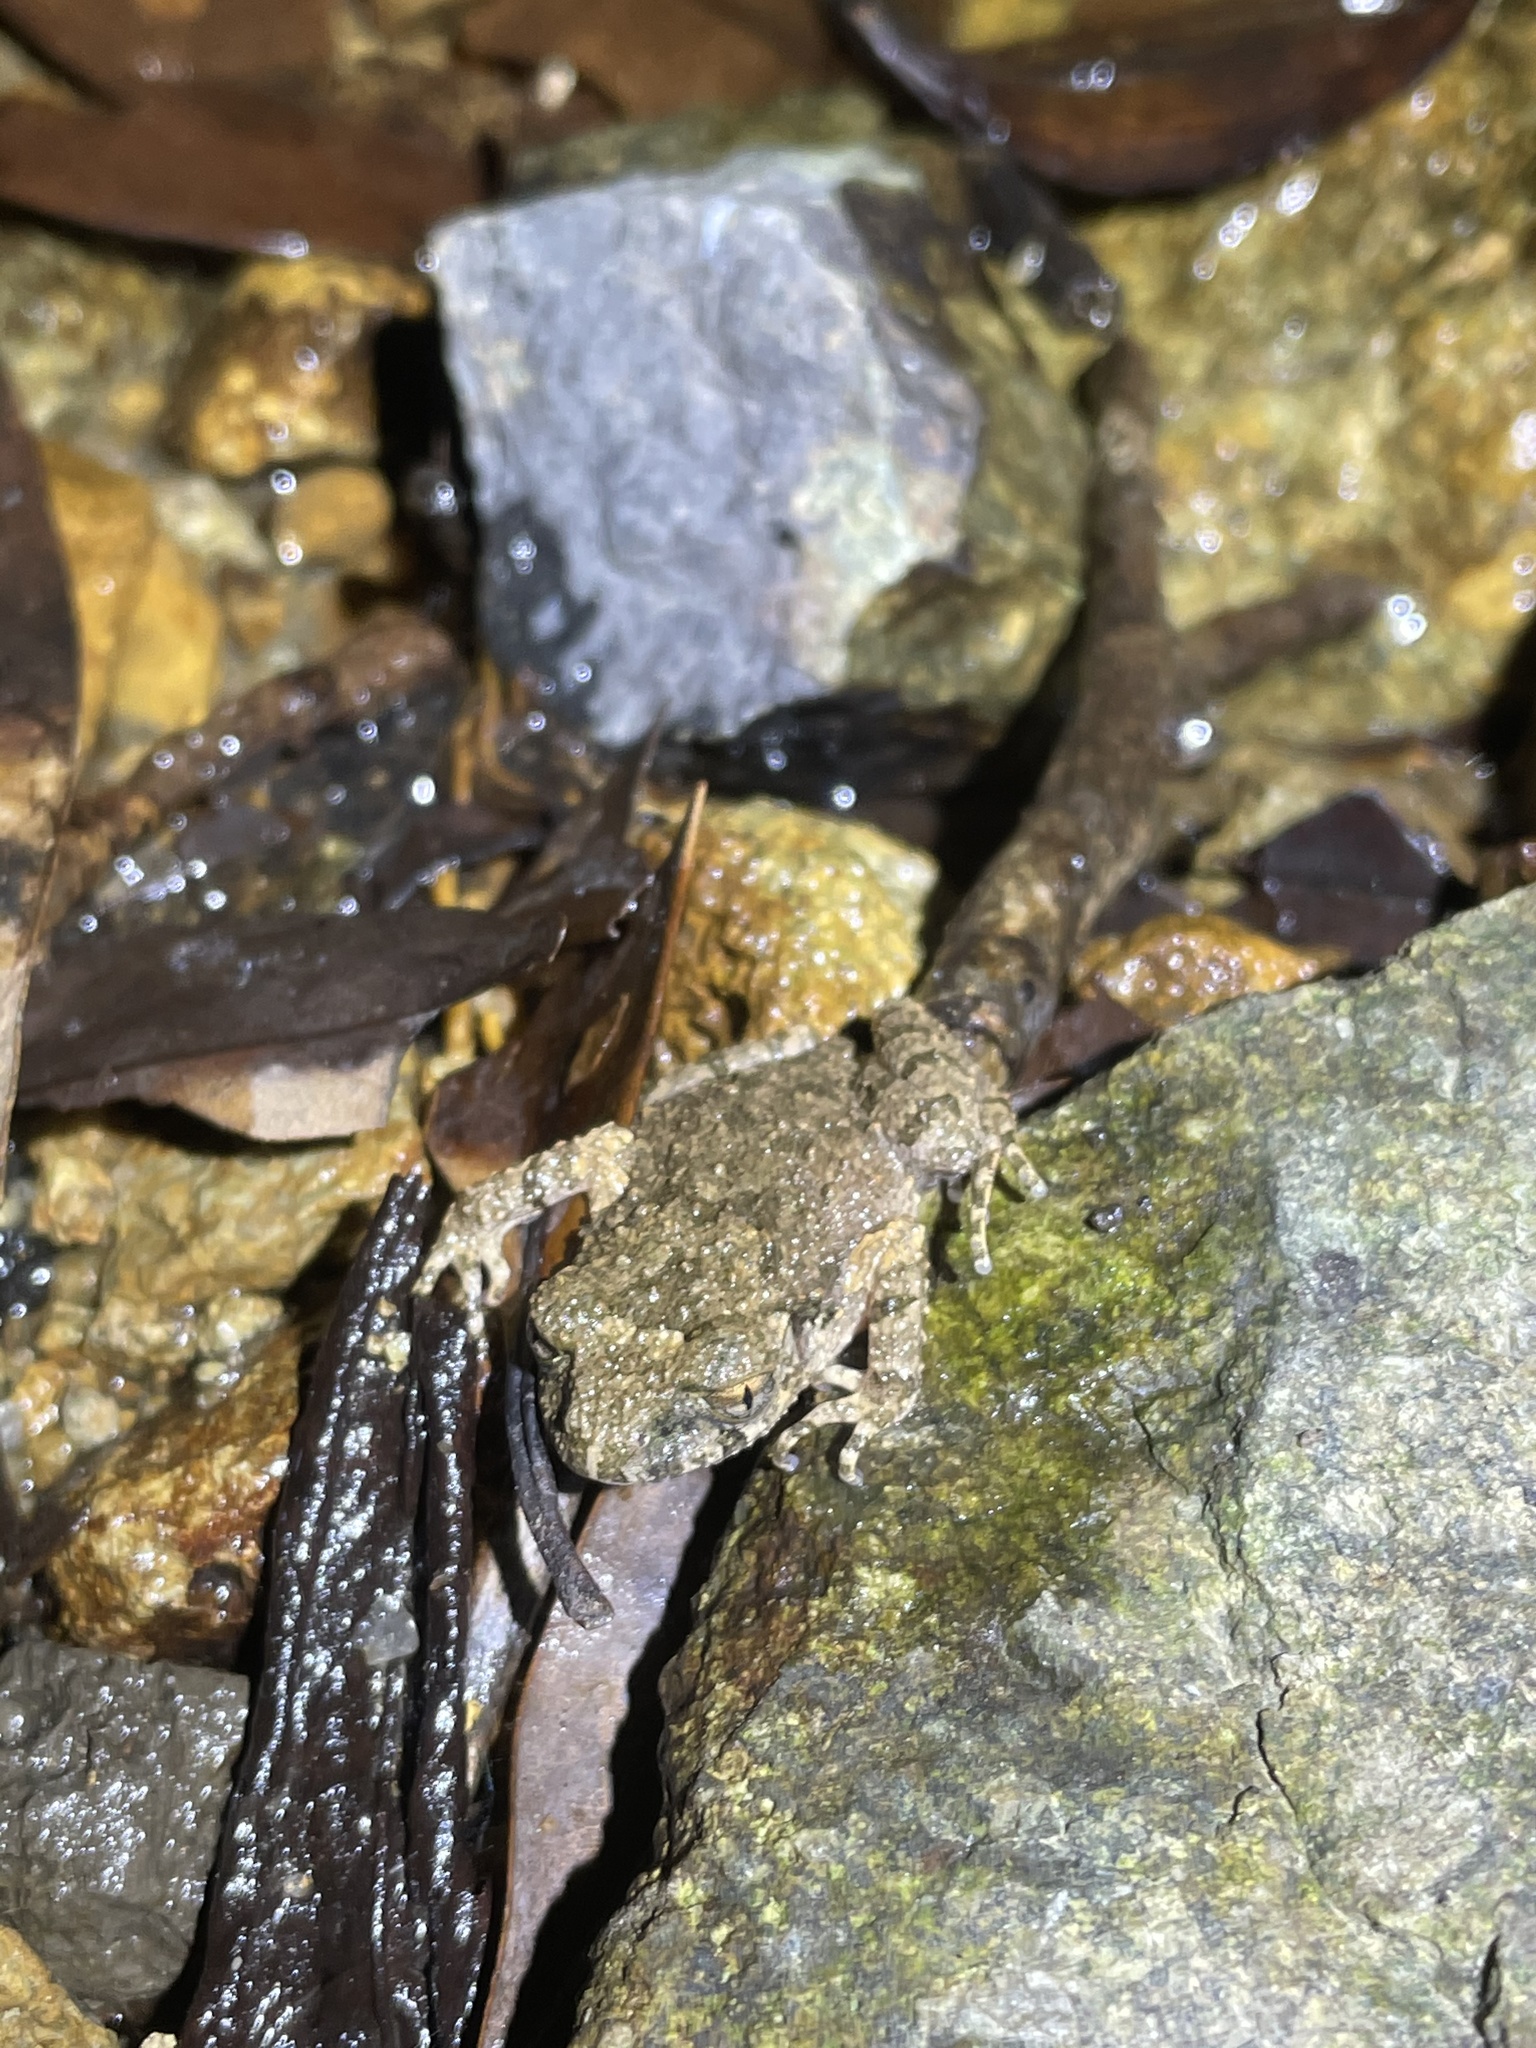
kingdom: Animalia
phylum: Chordata
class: Amphibia
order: Anura
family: Megophryidae
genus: Leptobrachella
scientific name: Leptobrachella laui
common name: Lau's leaf little toad
